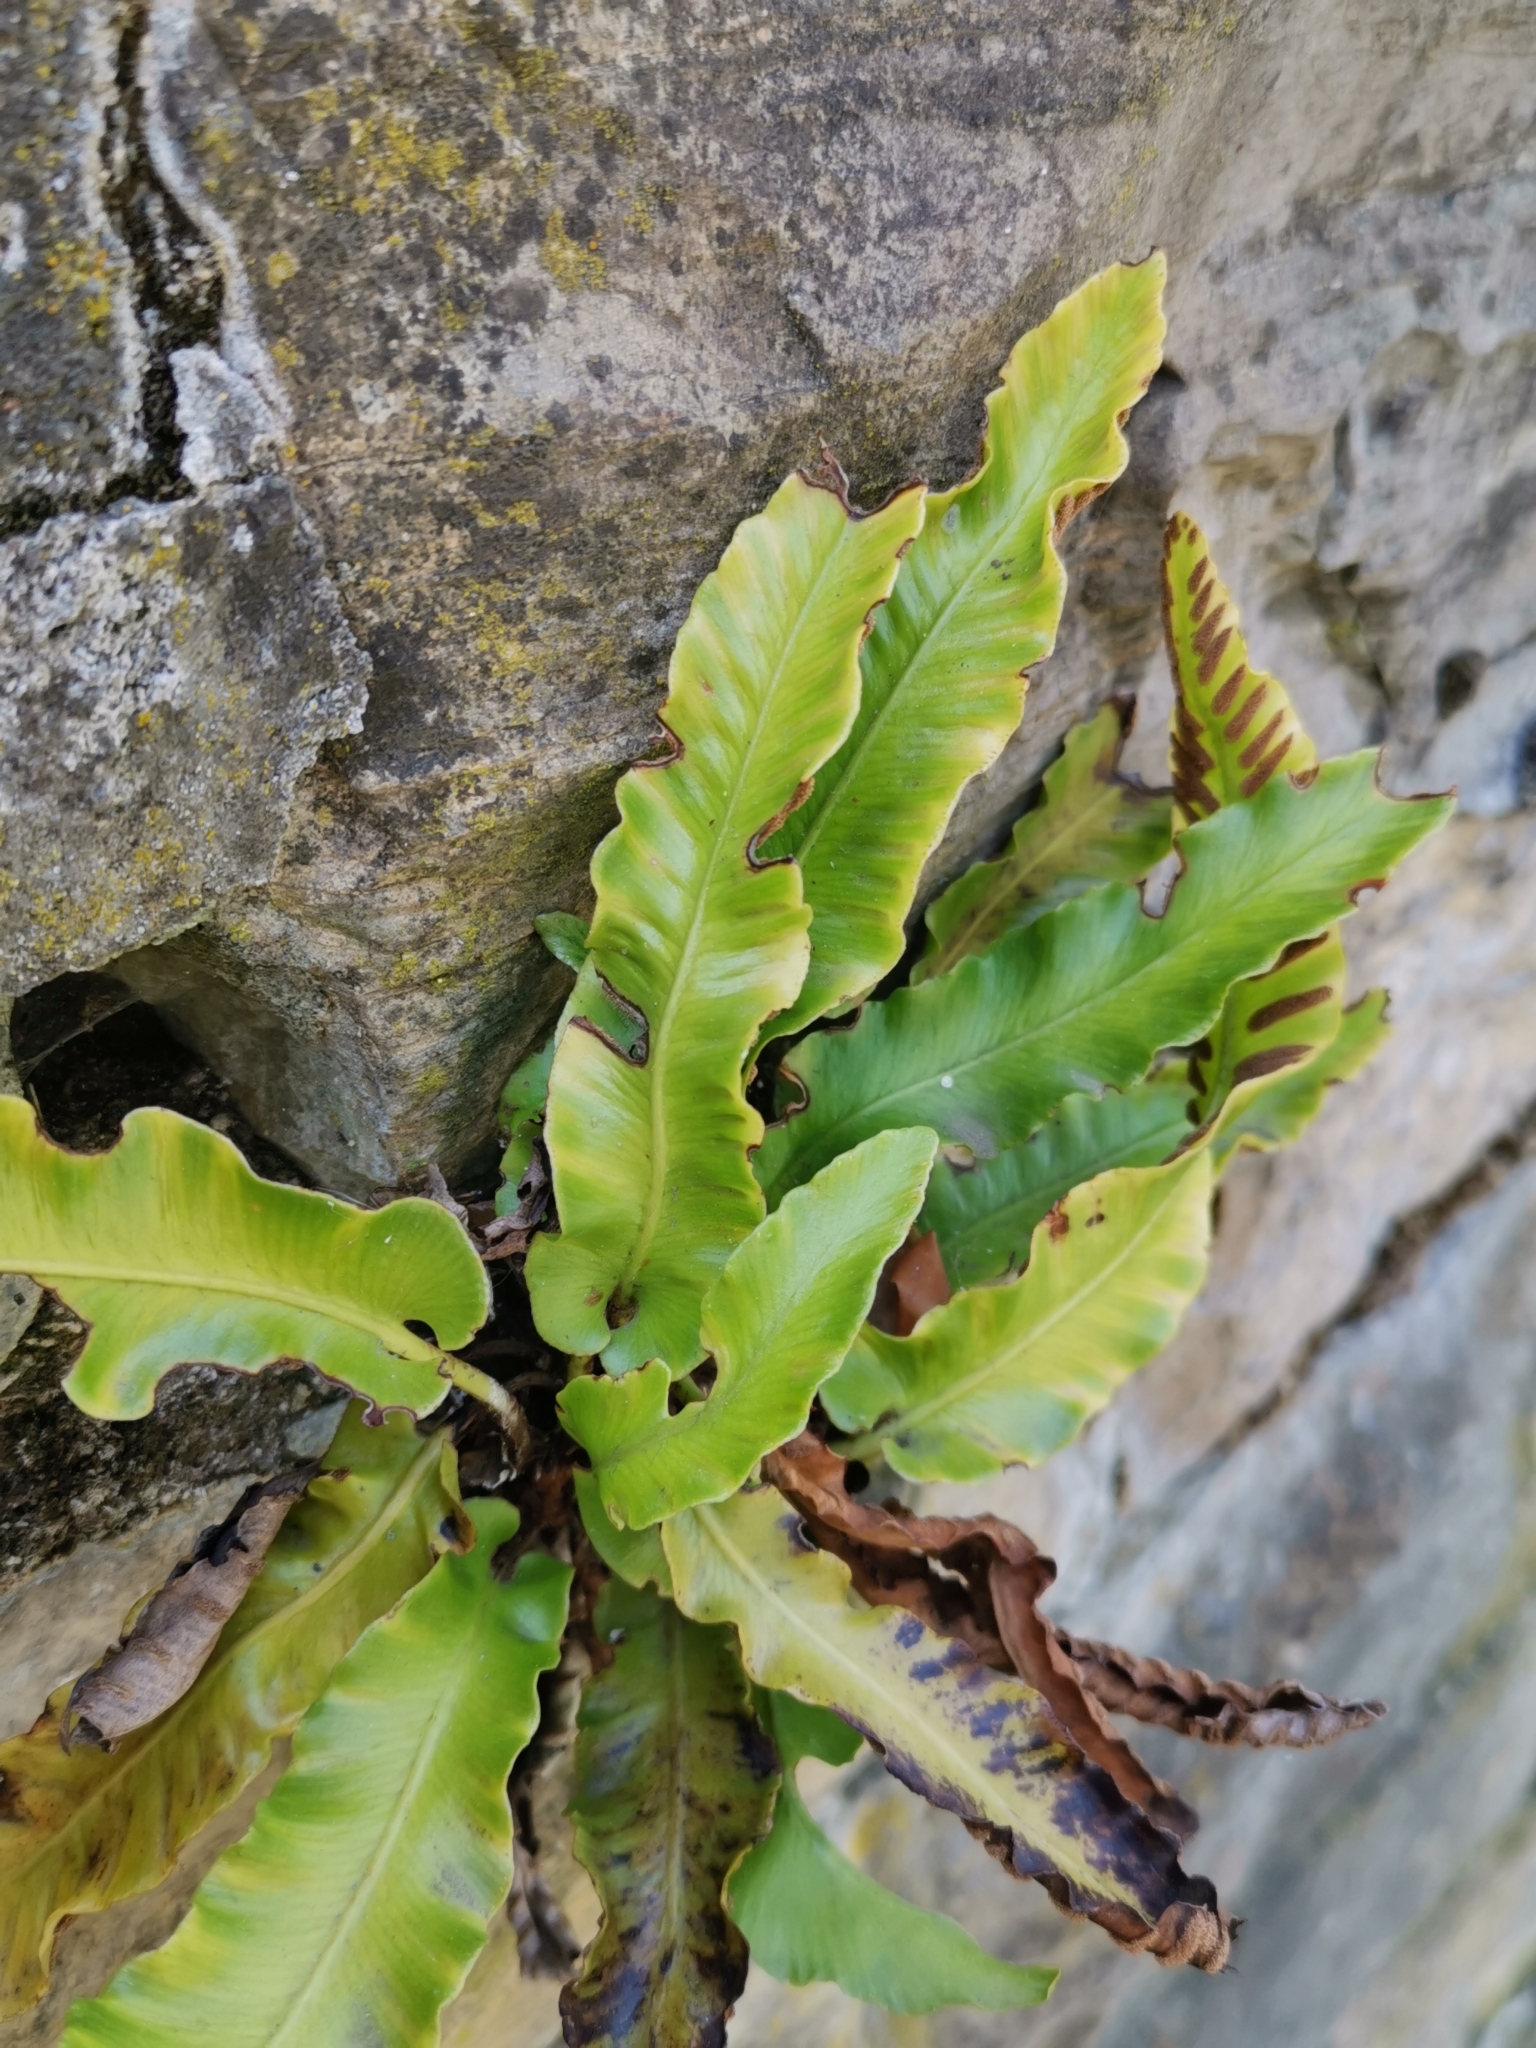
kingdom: Plantae
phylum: Tracheophyta
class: Polypodiopsida
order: Polypodiales
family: Aspleniaceae
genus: Asplenium
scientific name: Asplenium scolopendrium
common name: Hart's-tongue fern
